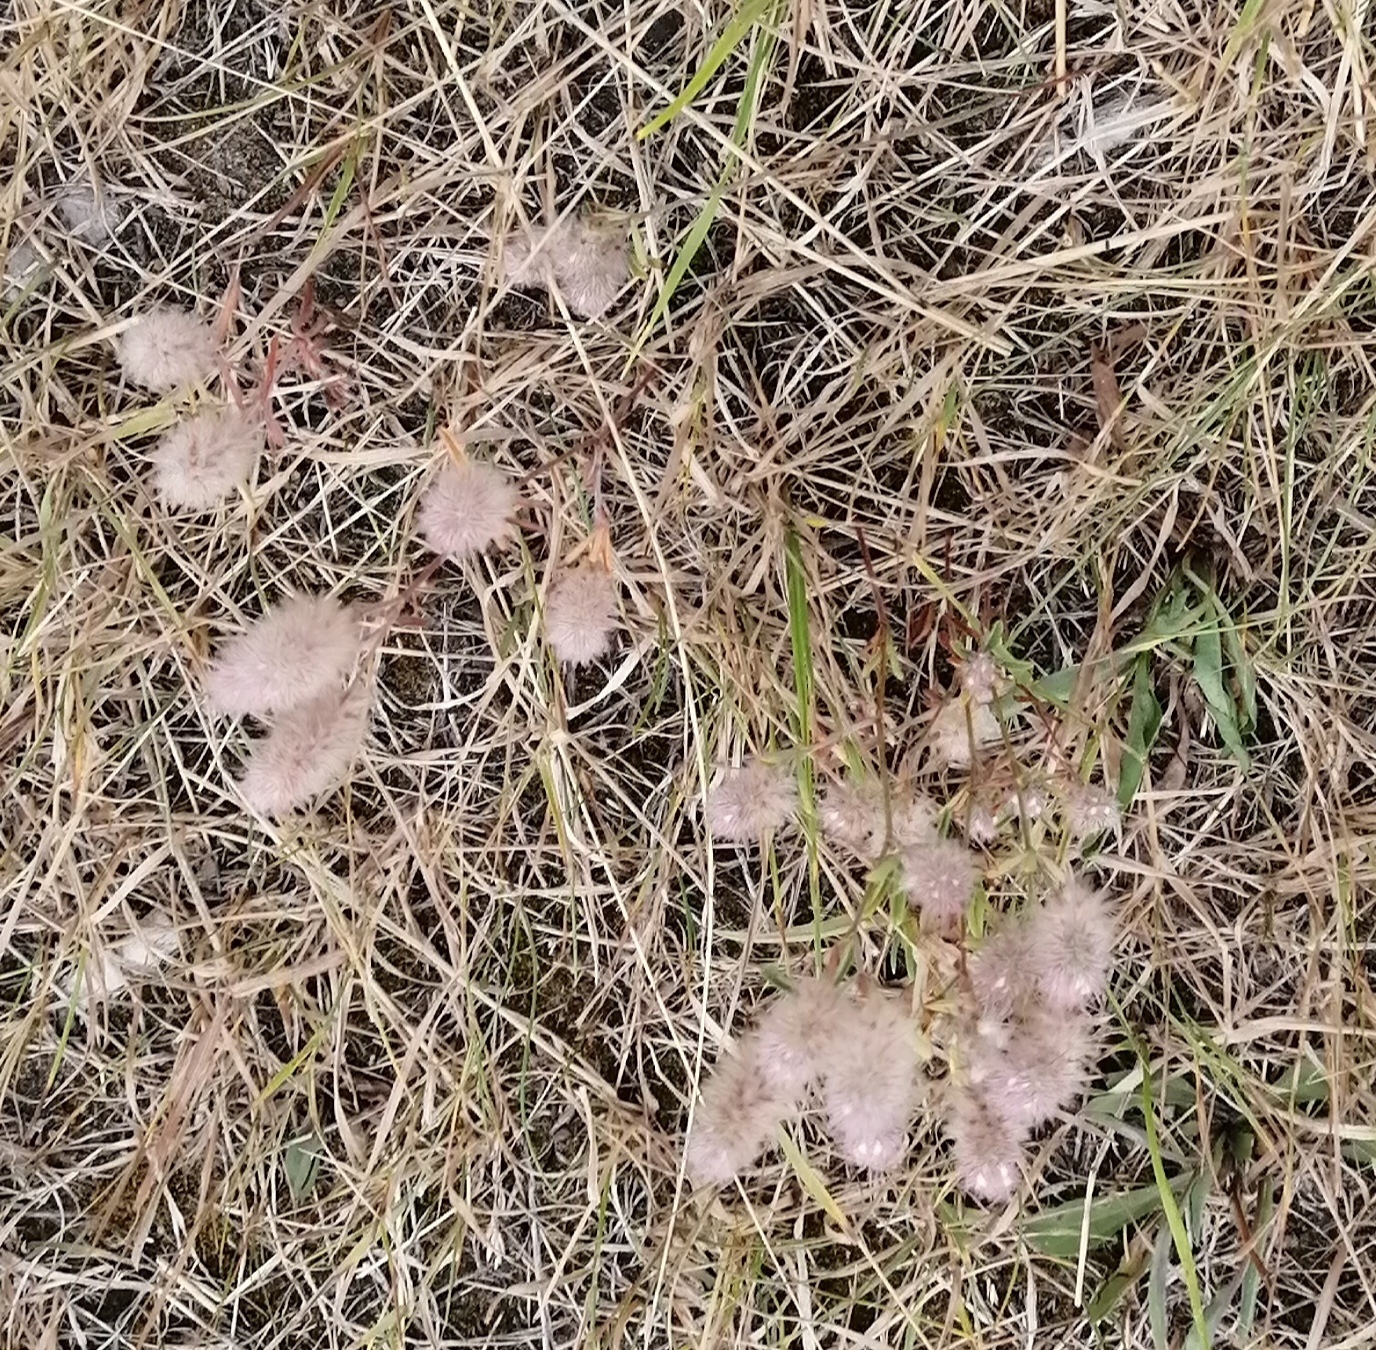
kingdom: Plantae
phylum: Tracheophyta
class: Magnoliopsida
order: Fabales
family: Fabaceae
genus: Trifolium
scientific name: Trifolium arvense
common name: Hare's-foot clover
